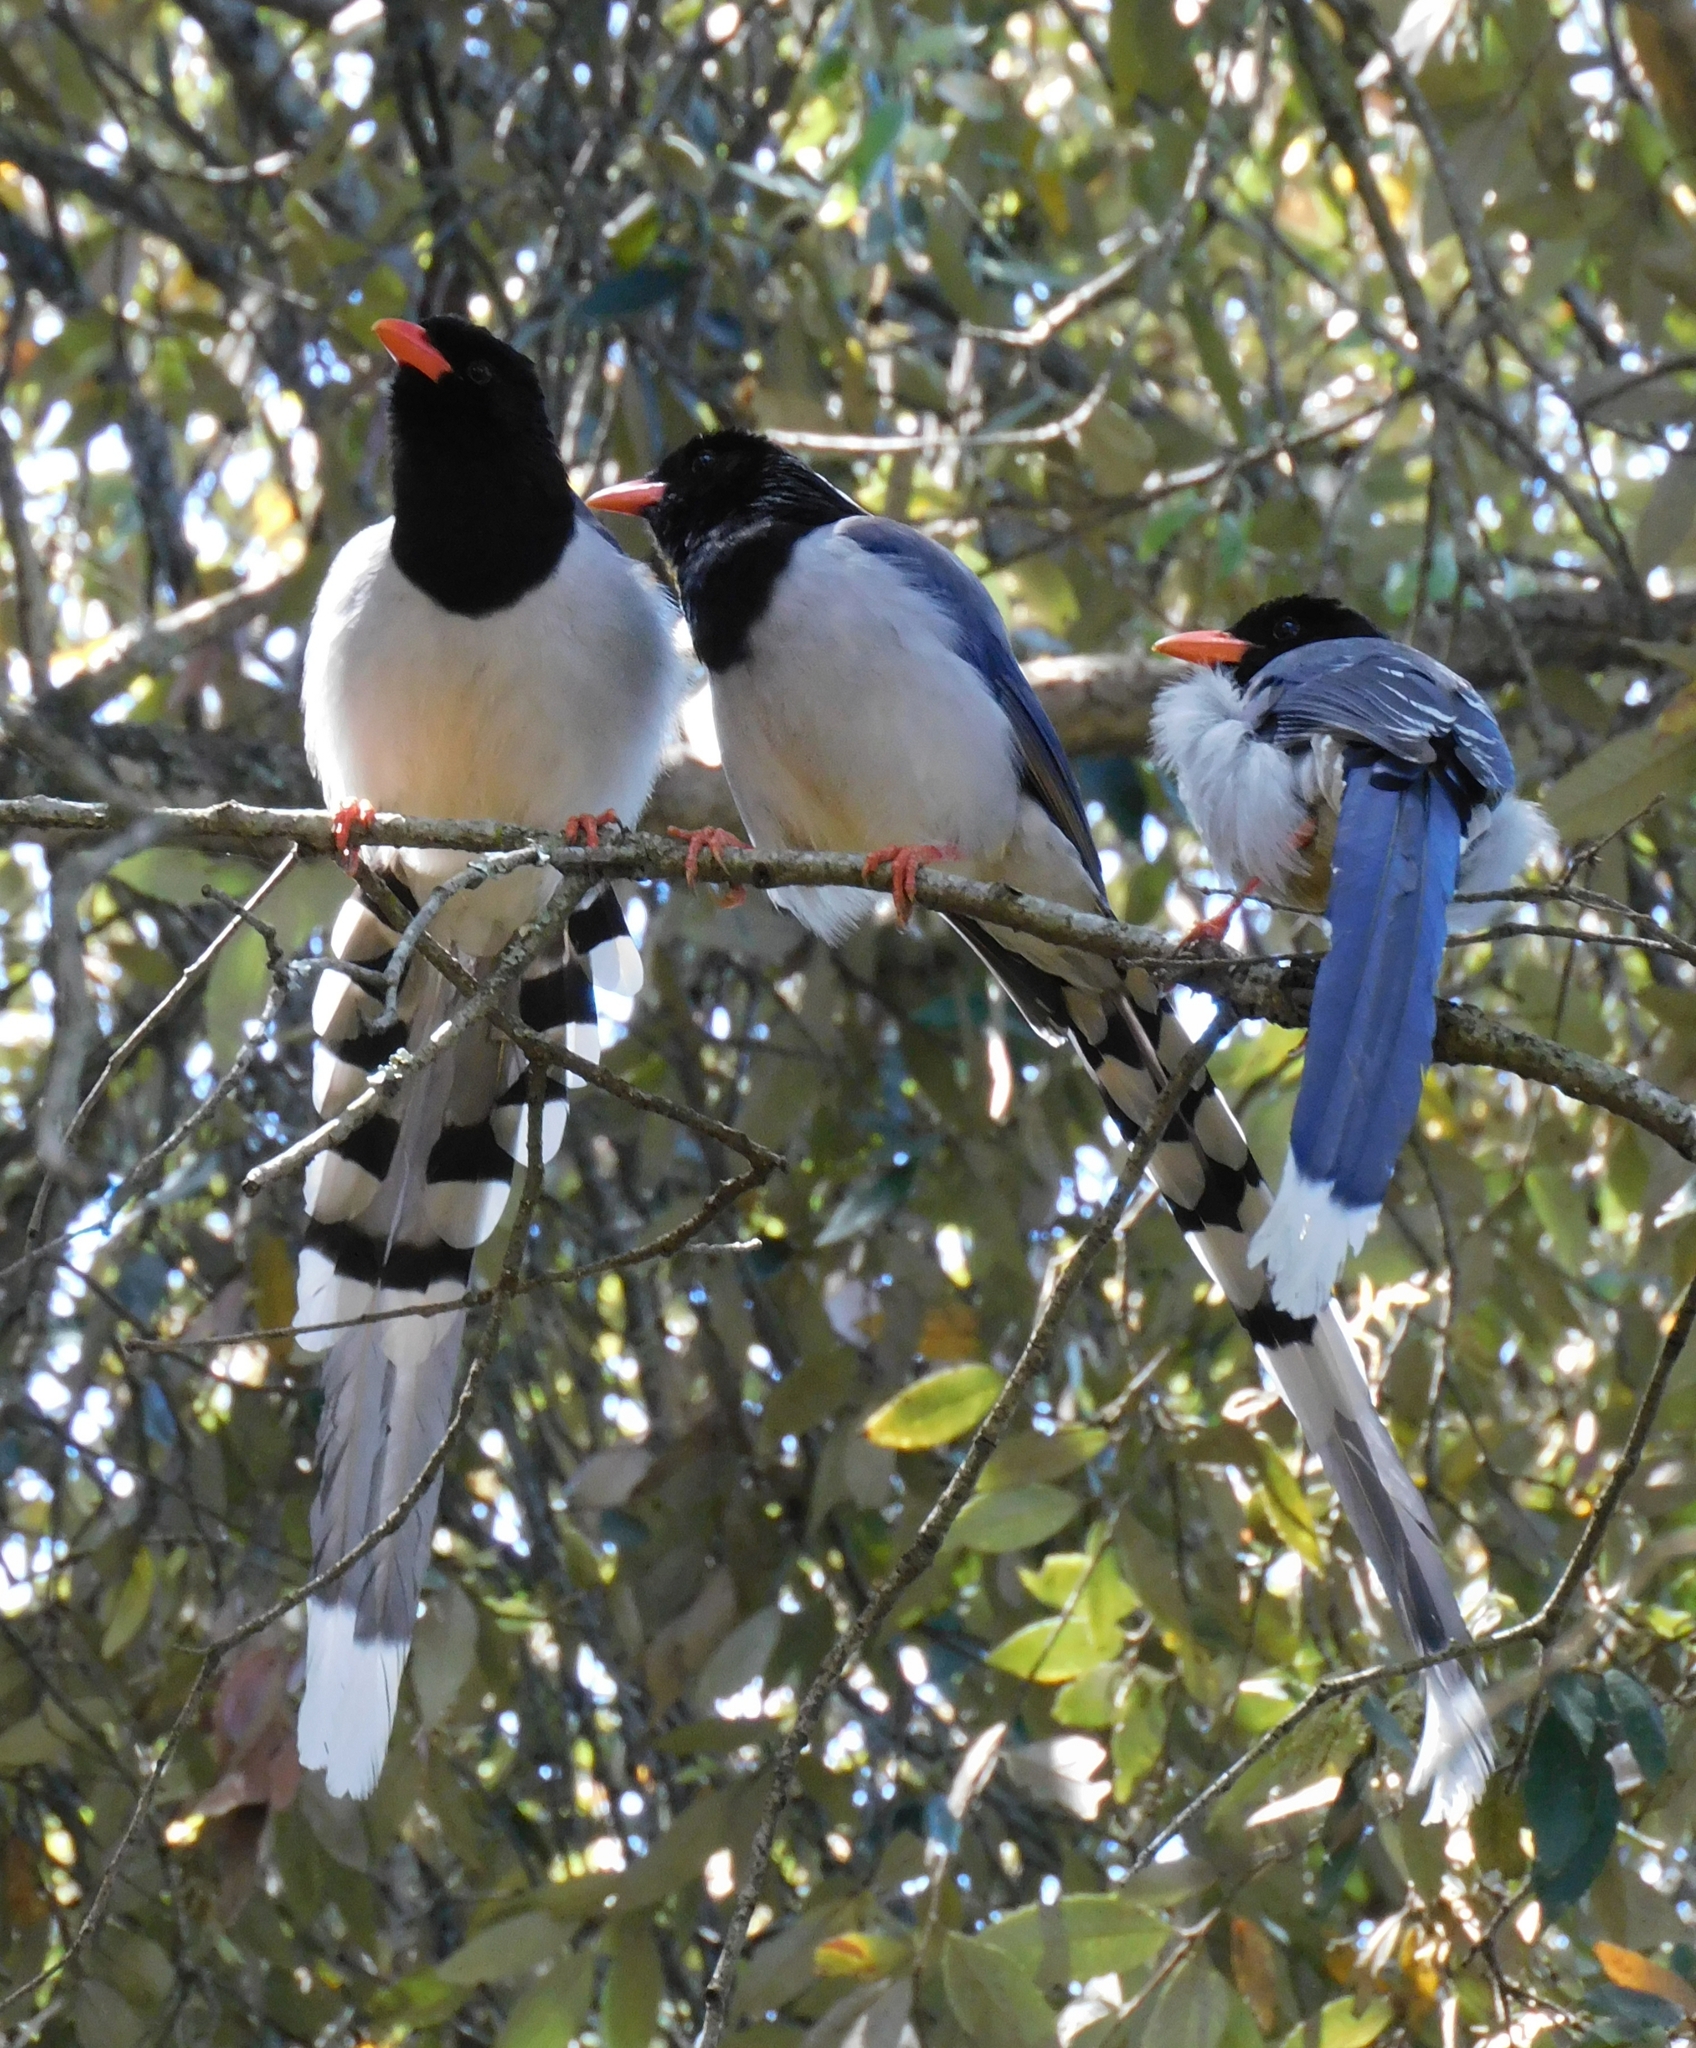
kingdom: Animalia
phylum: Chordata
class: Aves
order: Passeriformes
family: Corvidae
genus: Urocissa
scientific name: Urocissa erythroryncha
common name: Red-billed blue magpie
